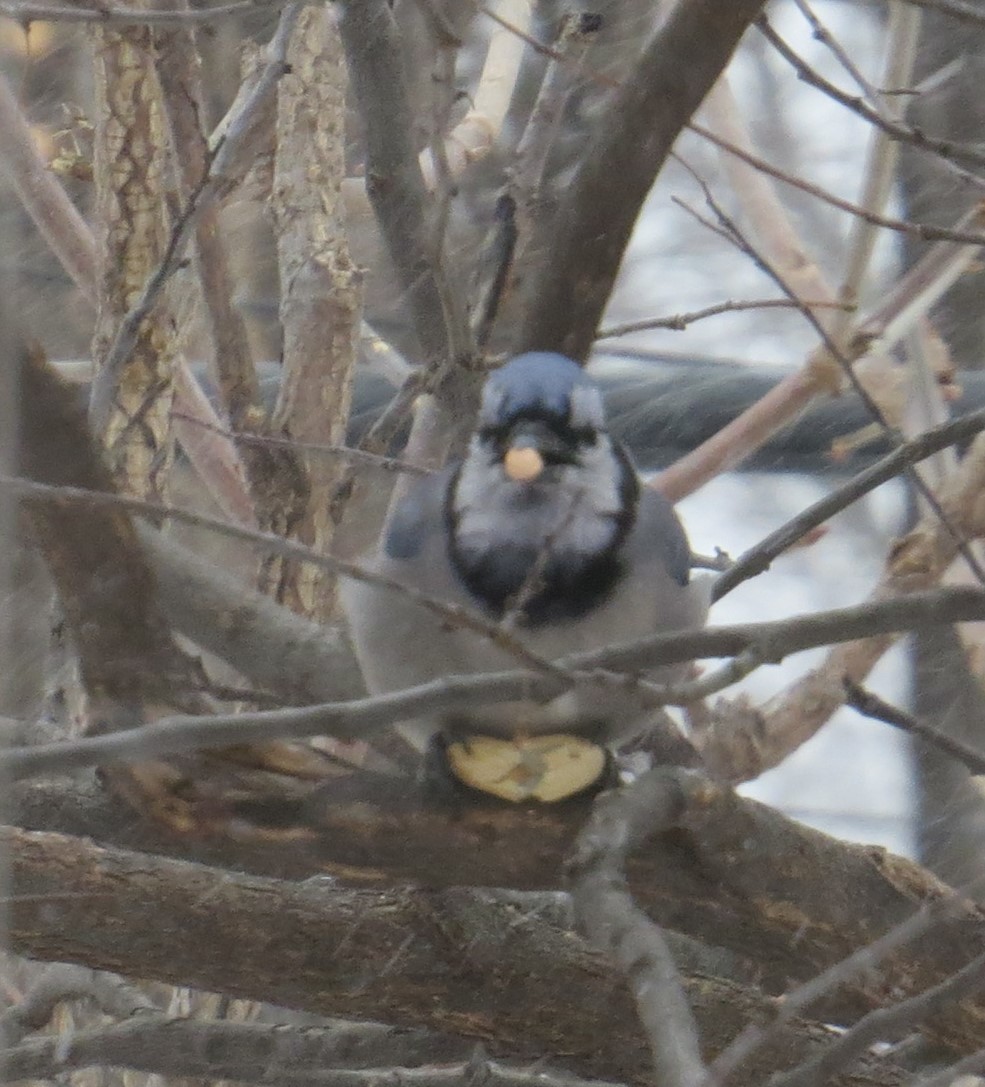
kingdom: Animalia
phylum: Chordata
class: Aves
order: Passeriformes
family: Corvidae
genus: Cyanocitta
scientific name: Cyanocitta cristata
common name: Blue jay
